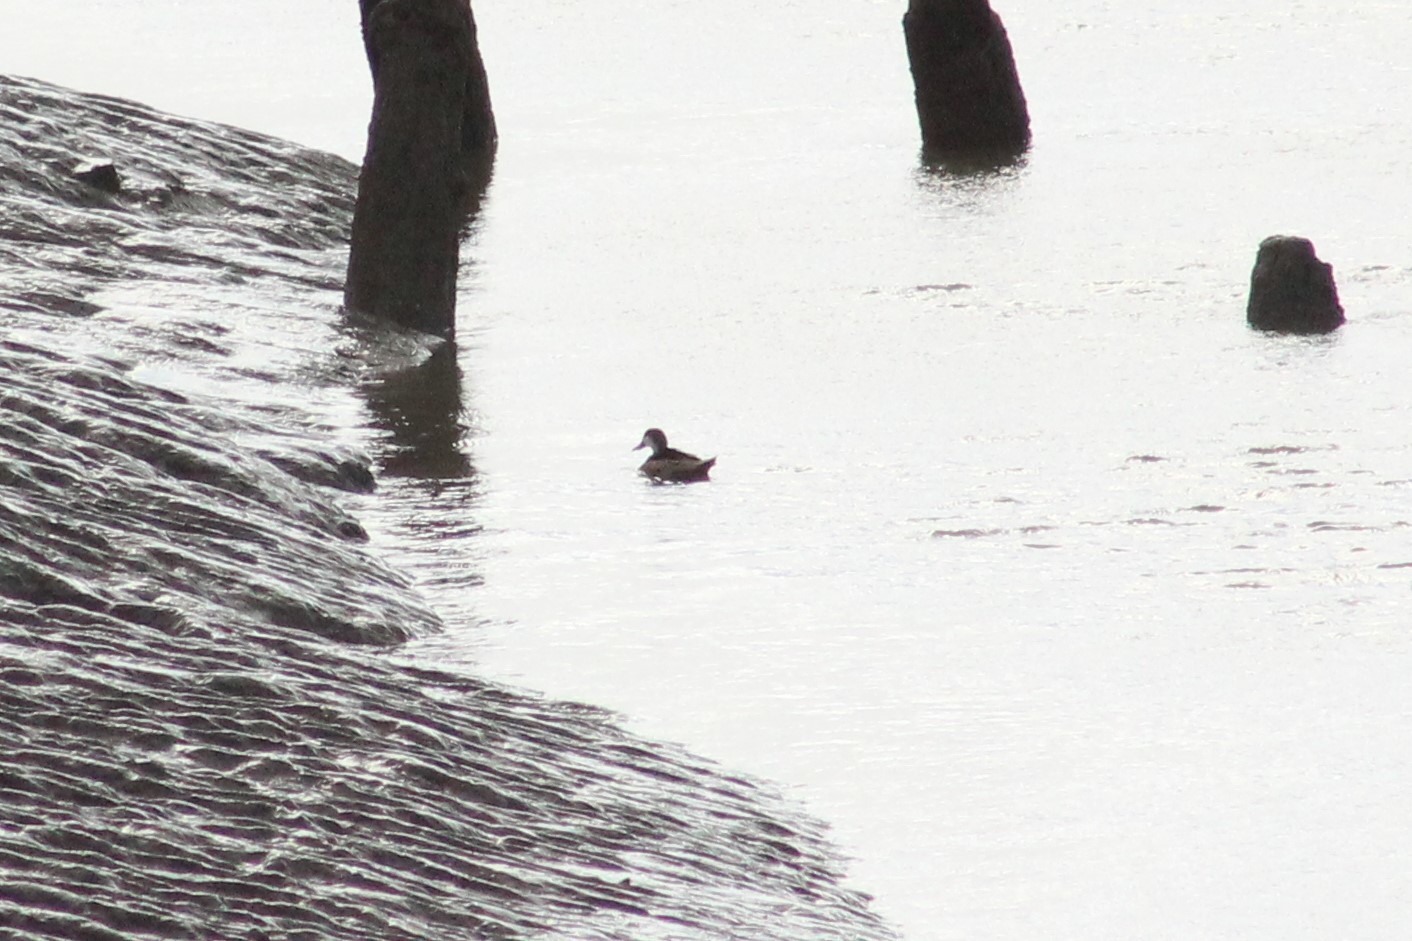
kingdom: Animalia
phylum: Chordata
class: Aves
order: Anseriformes
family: Anatidae
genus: Anas
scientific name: Anas bahamensis
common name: White-cheeked pintail
